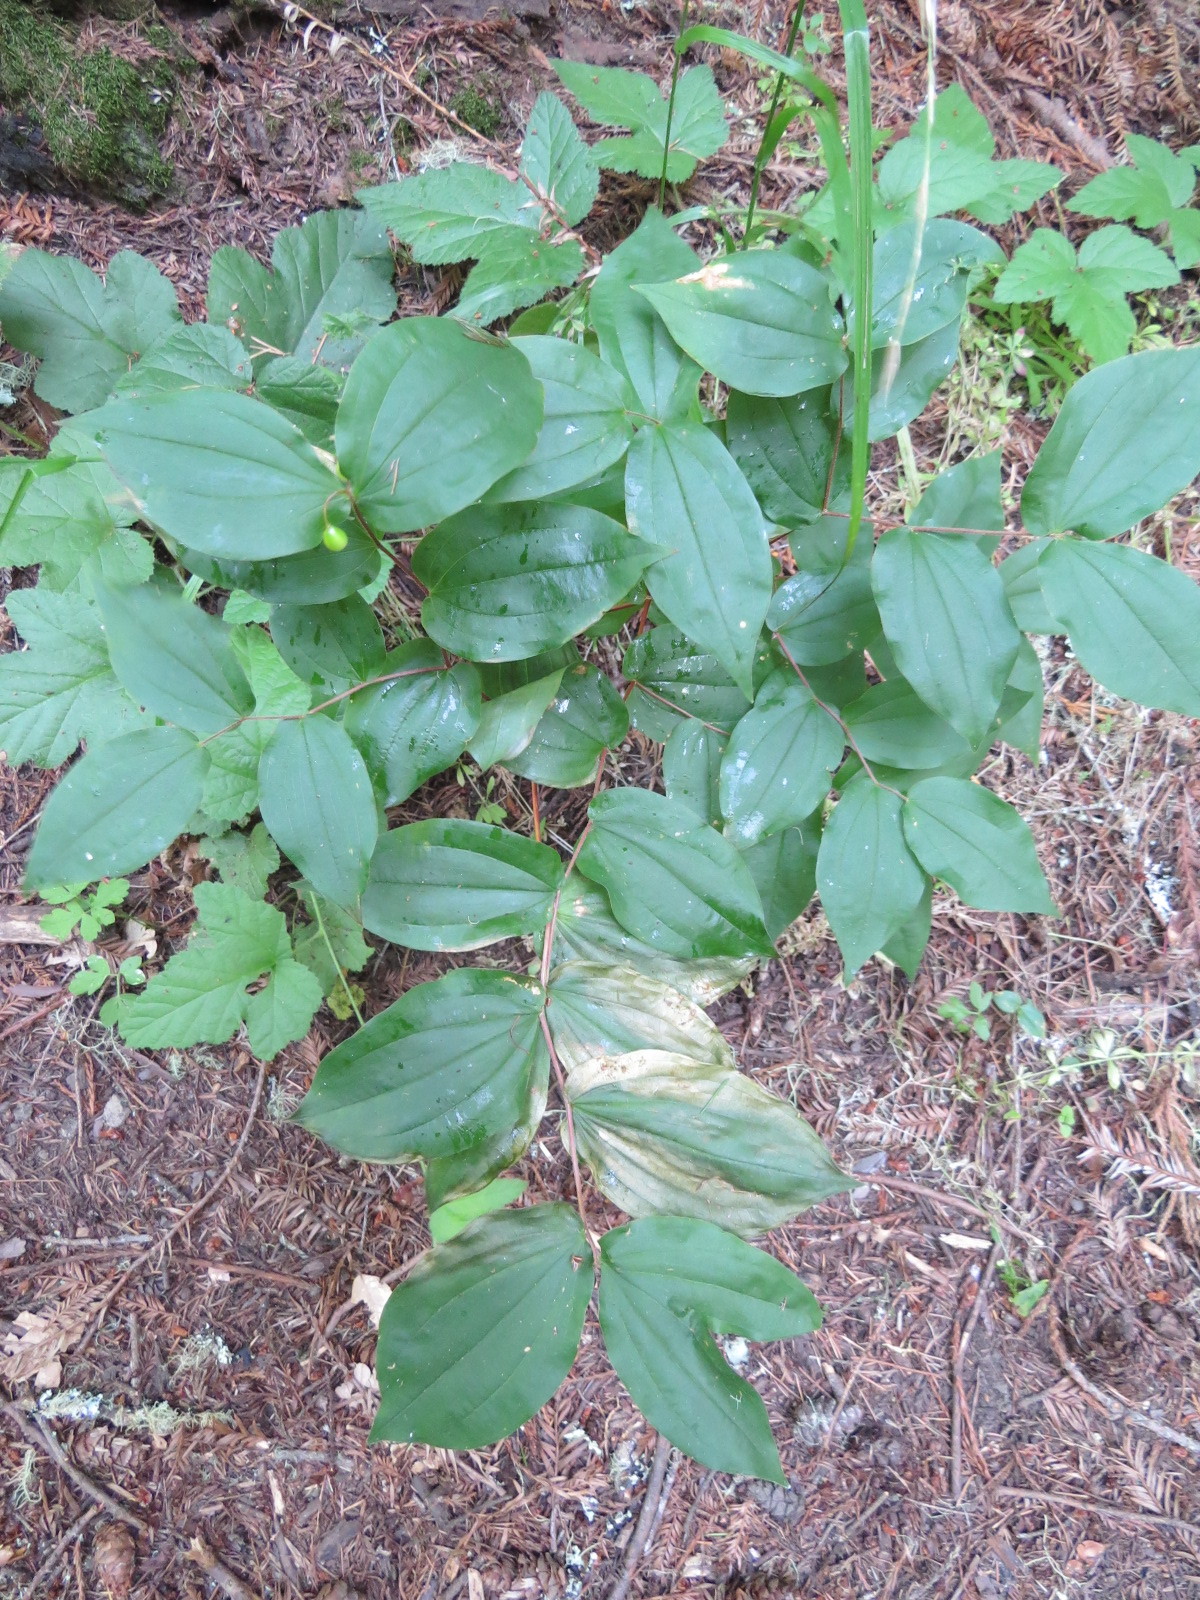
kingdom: Plantae
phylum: Tracheophyta
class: Liliopsida
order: Liliales
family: Liliaceae
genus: Prosartes
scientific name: Prosartes hookeri
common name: Fairy-bells
